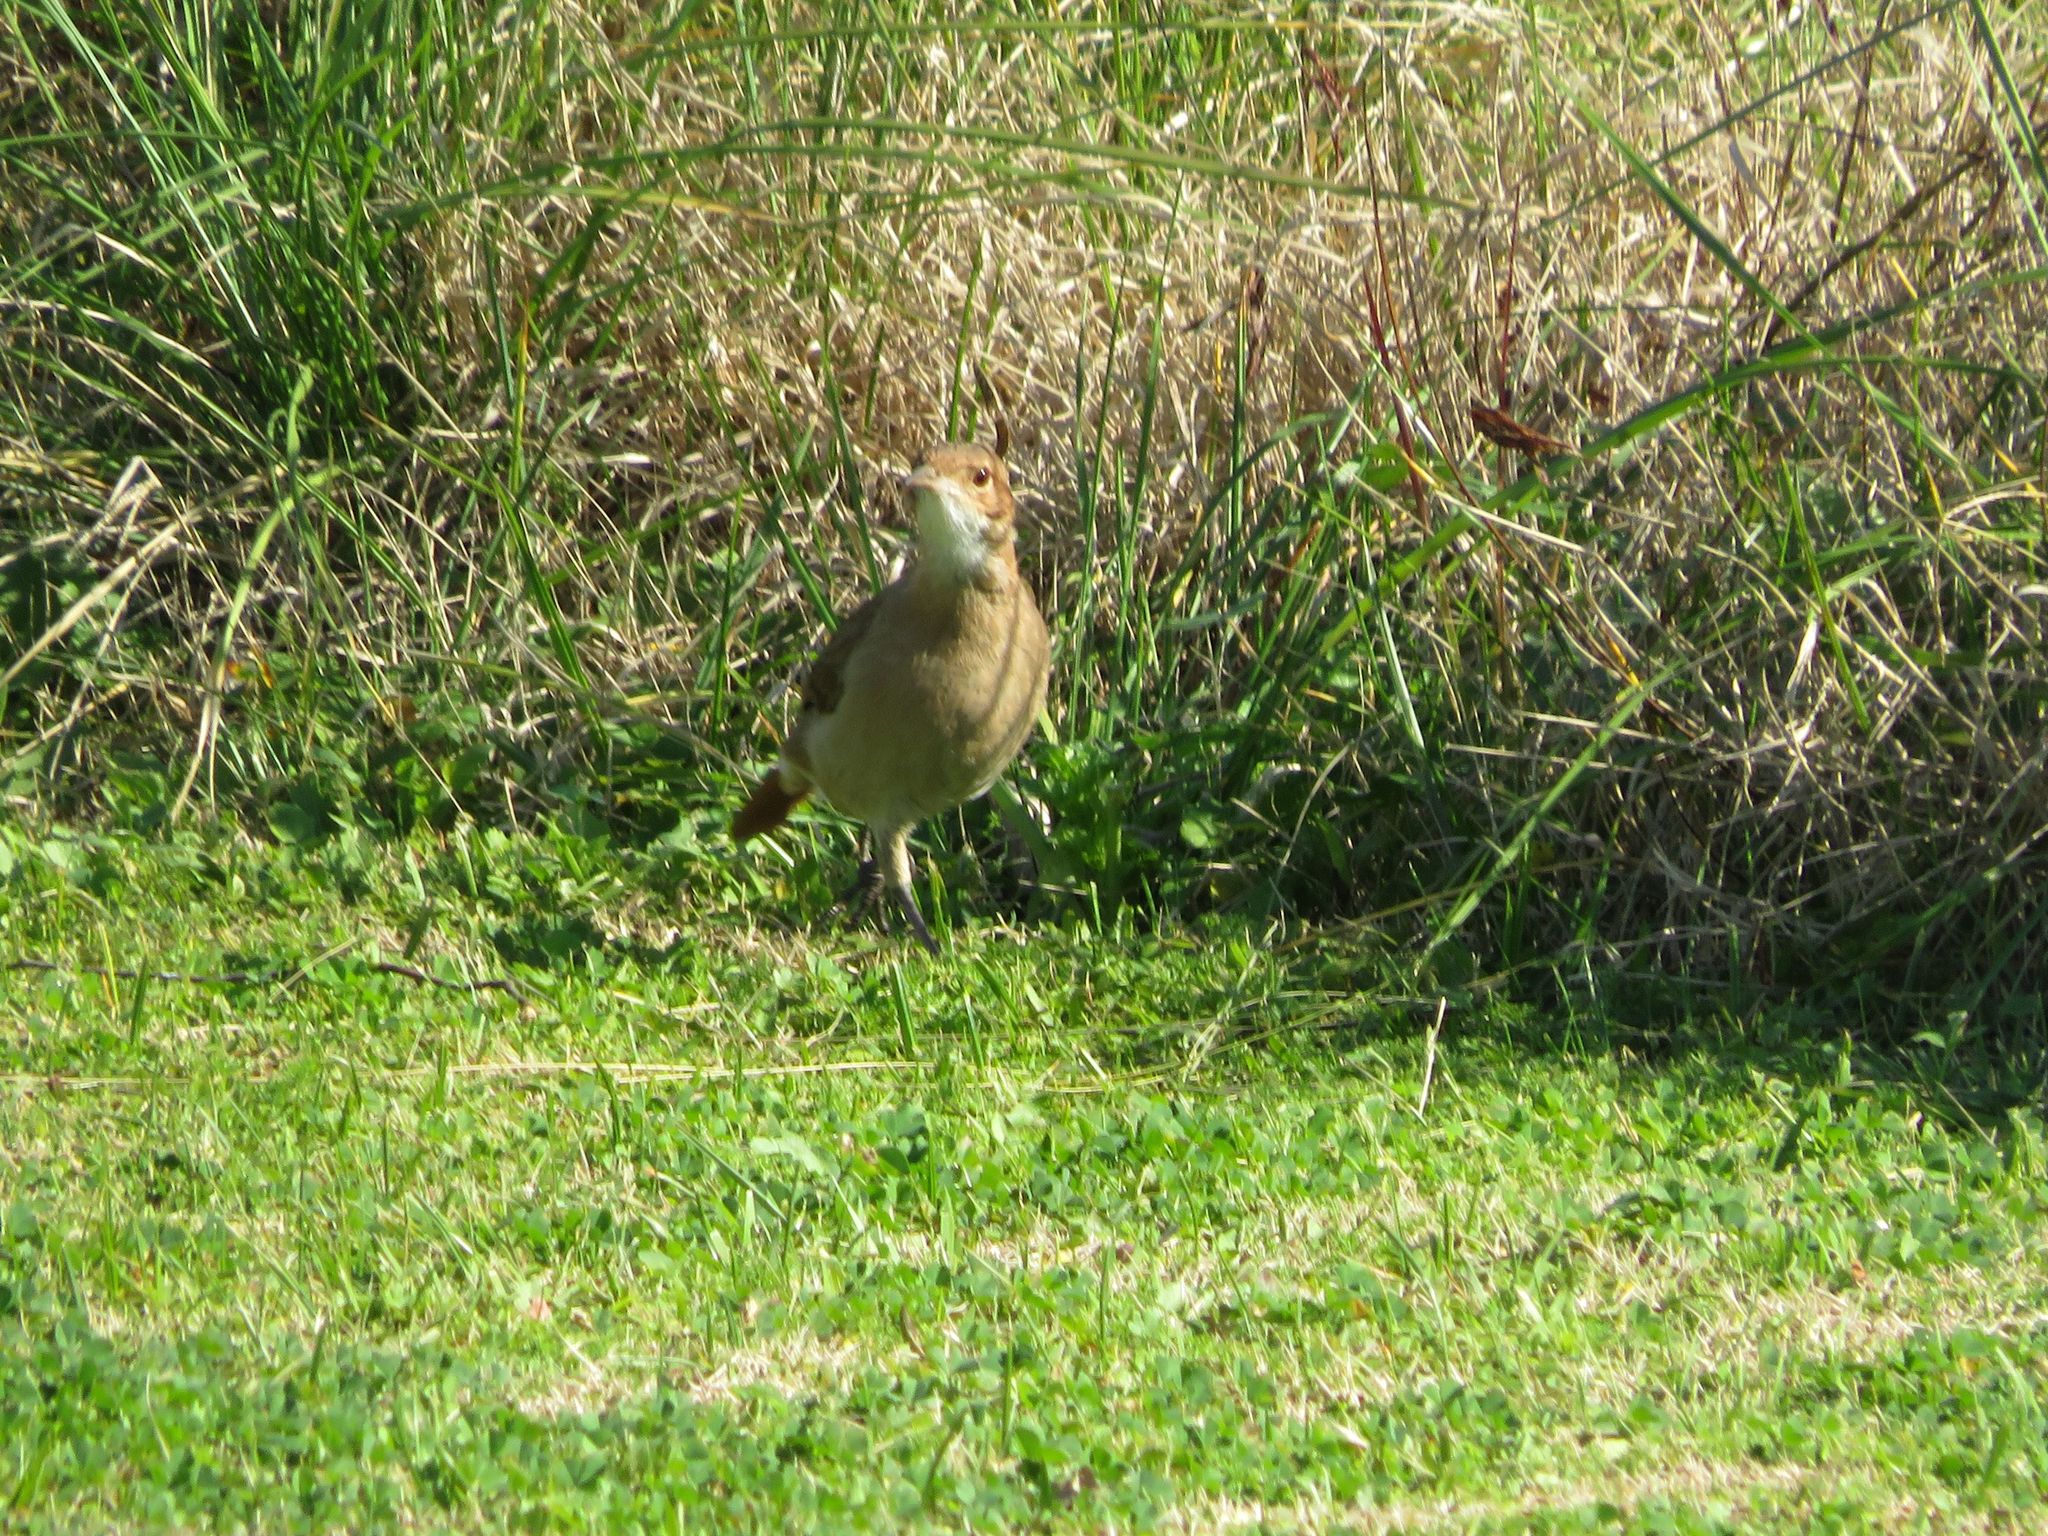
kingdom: Animalia
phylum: Chordata
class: Aves
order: Passeriformes
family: Furnariidae
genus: Furnarius
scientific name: Furnarius rufus
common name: Rufous hornero
